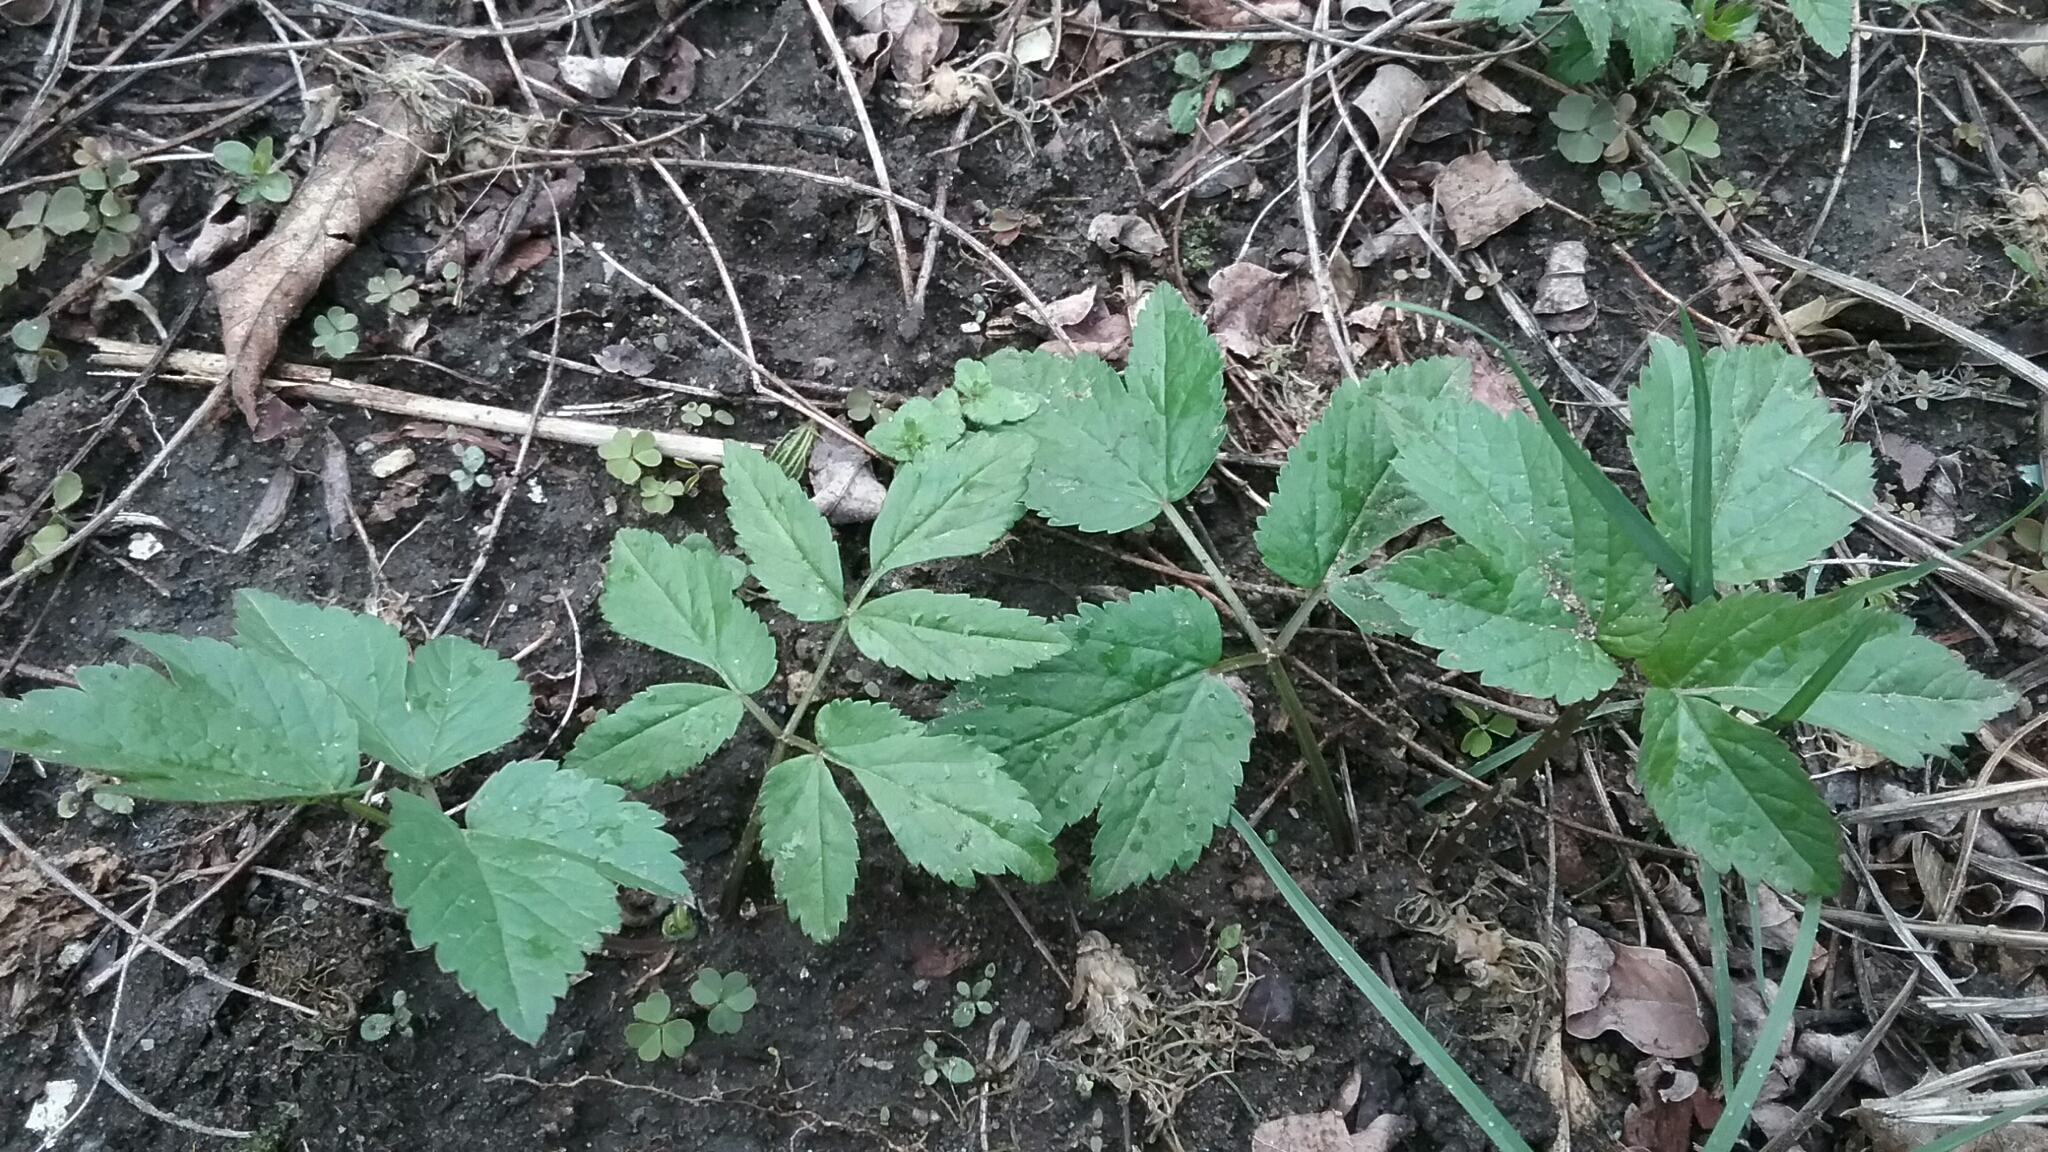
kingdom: Plantae
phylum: Tracheophyta
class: Magnoliopsida
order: Apiales
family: Apiaceae
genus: Aegopodium
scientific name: Aegopodium podagraria
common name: Ground-elder
